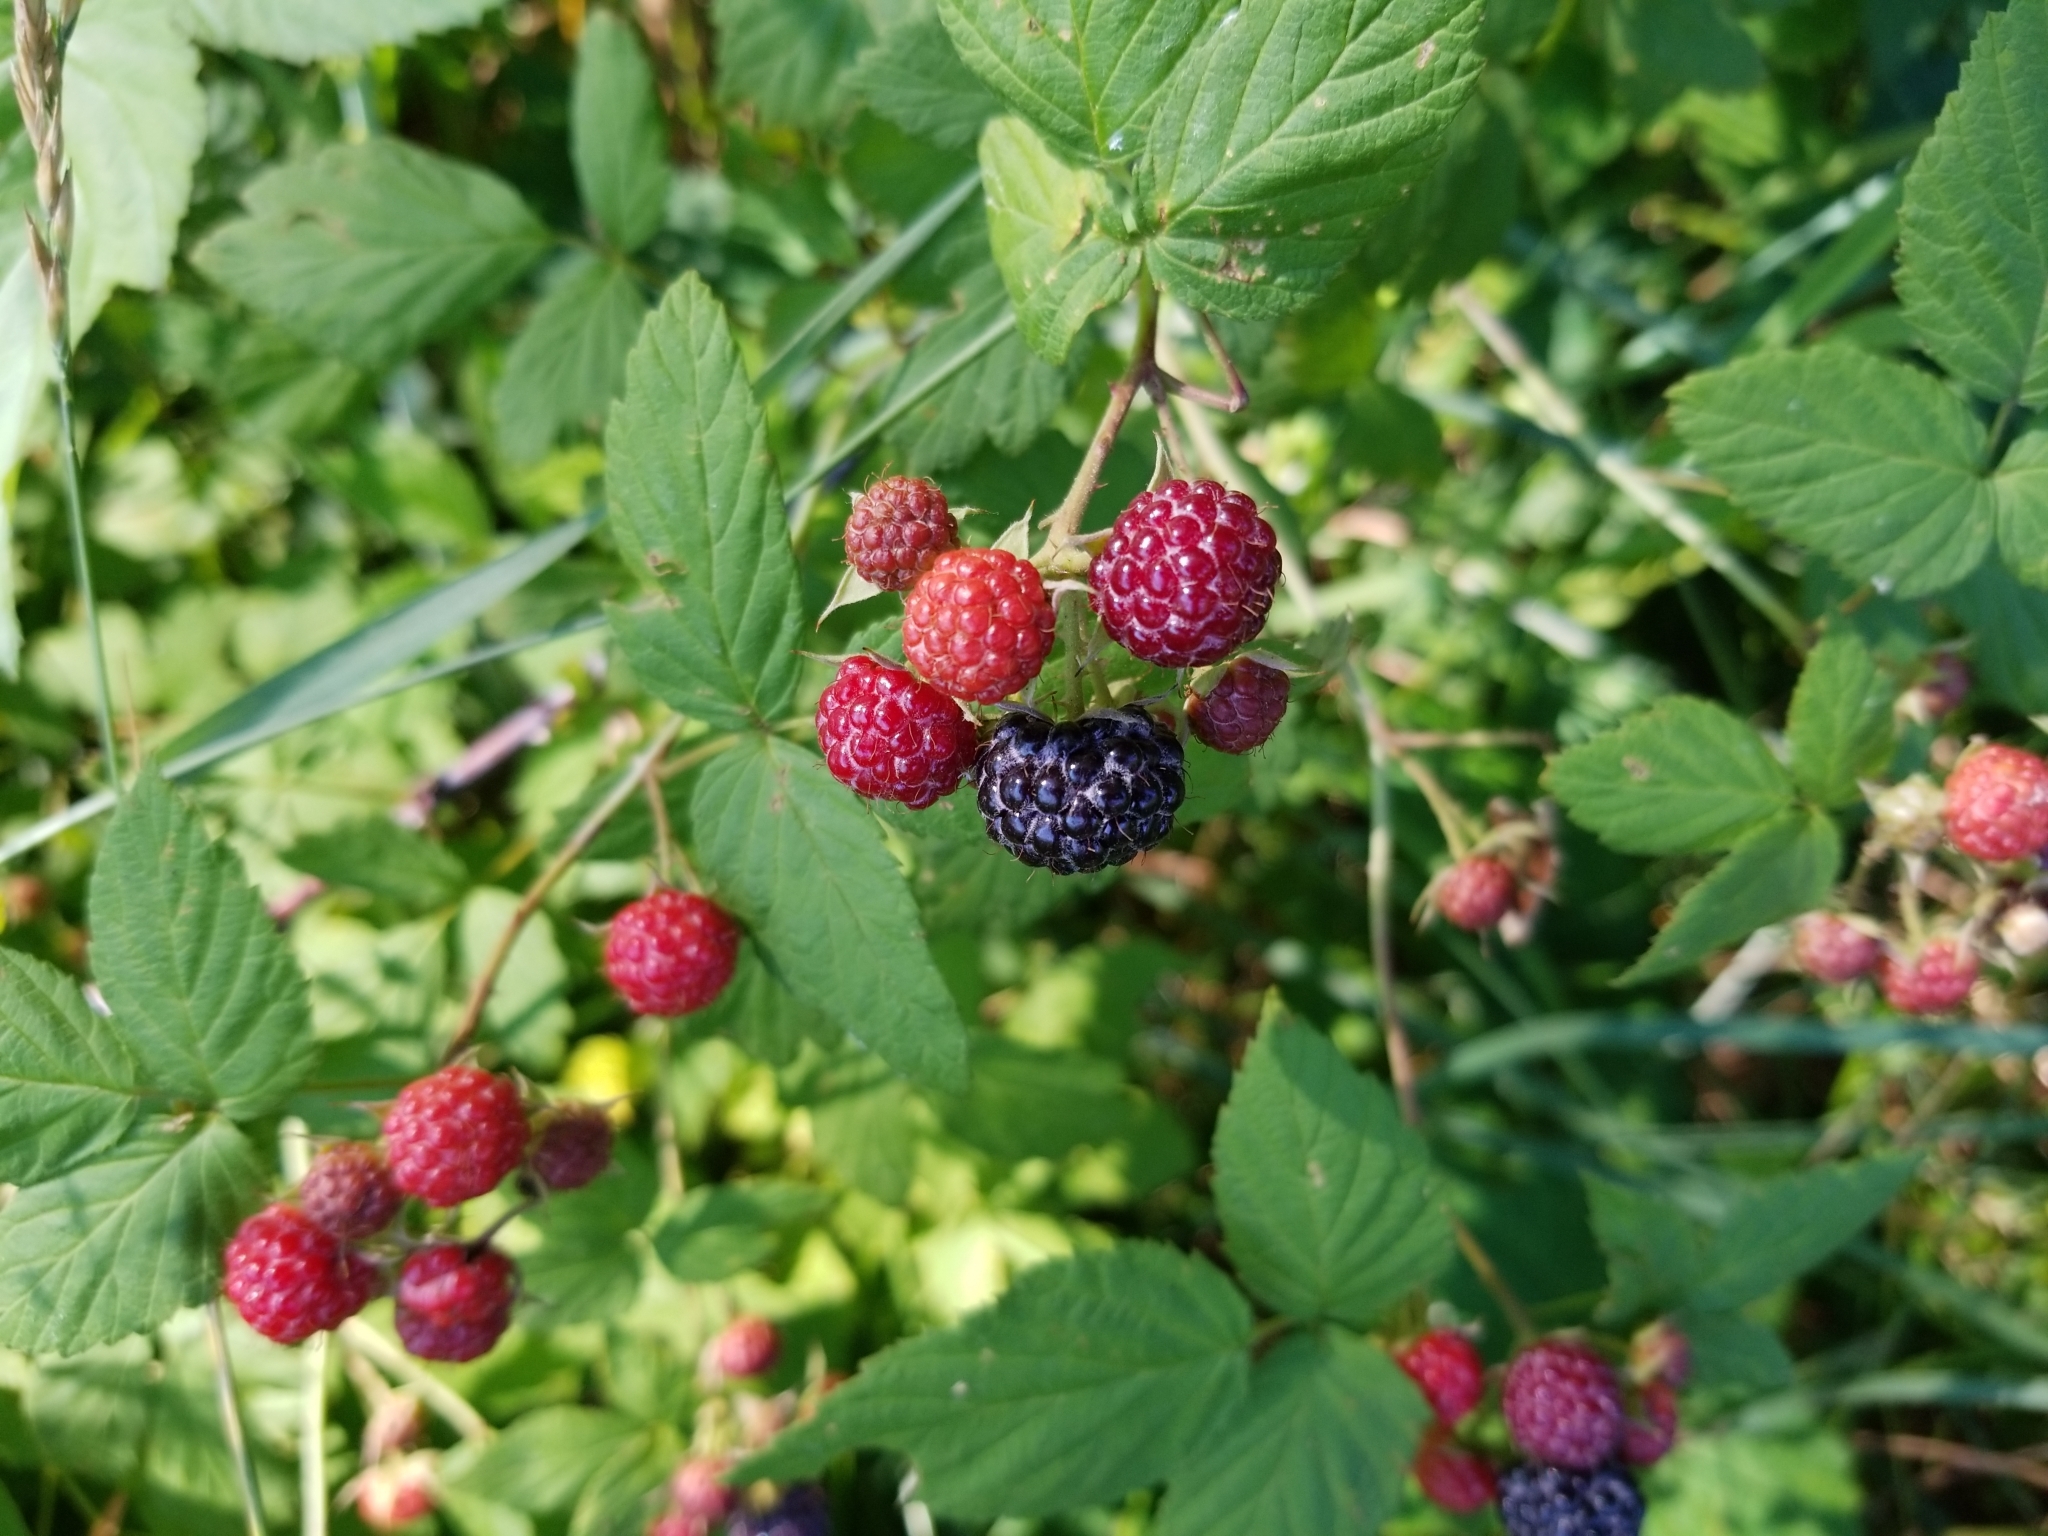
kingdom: Plantae
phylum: Tracheophyta
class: Magnoliopsida
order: Rosales
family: Rosaceae
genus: Rubus
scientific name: Rubus occidentalis
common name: Black raspberry
